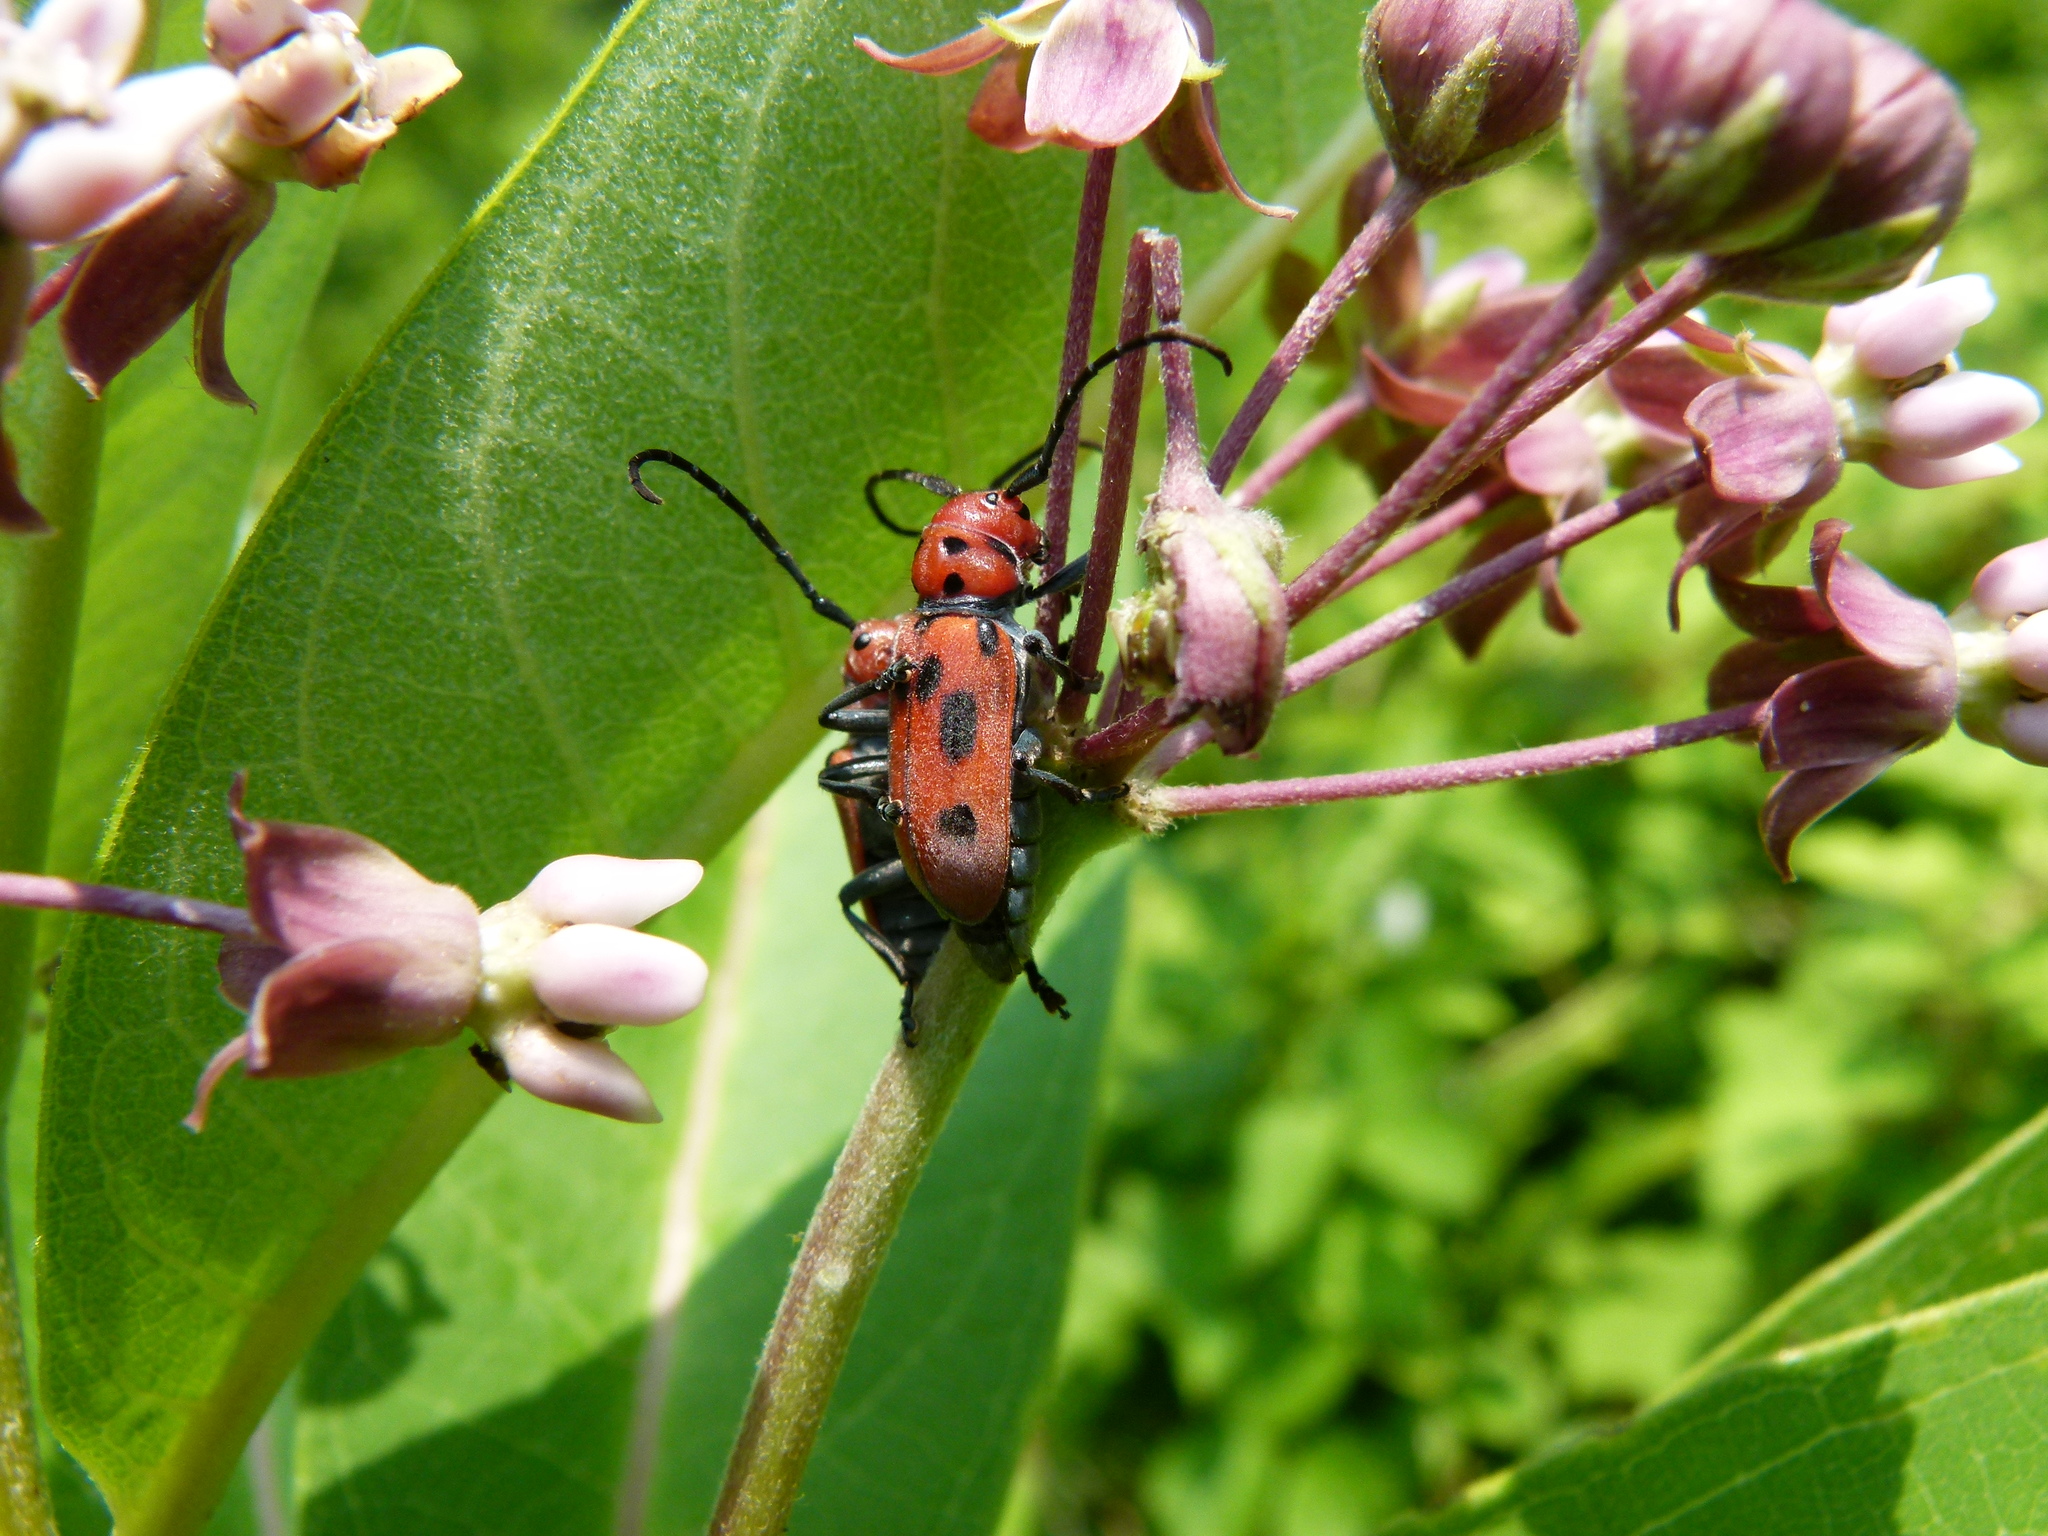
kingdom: Animalia
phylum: Arthropoda
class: Insecta
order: Coleoptera
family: Cerambycidae
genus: Tetraopes
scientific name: Tetraopes tetrophthalmus
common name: Red milkweed beetle
